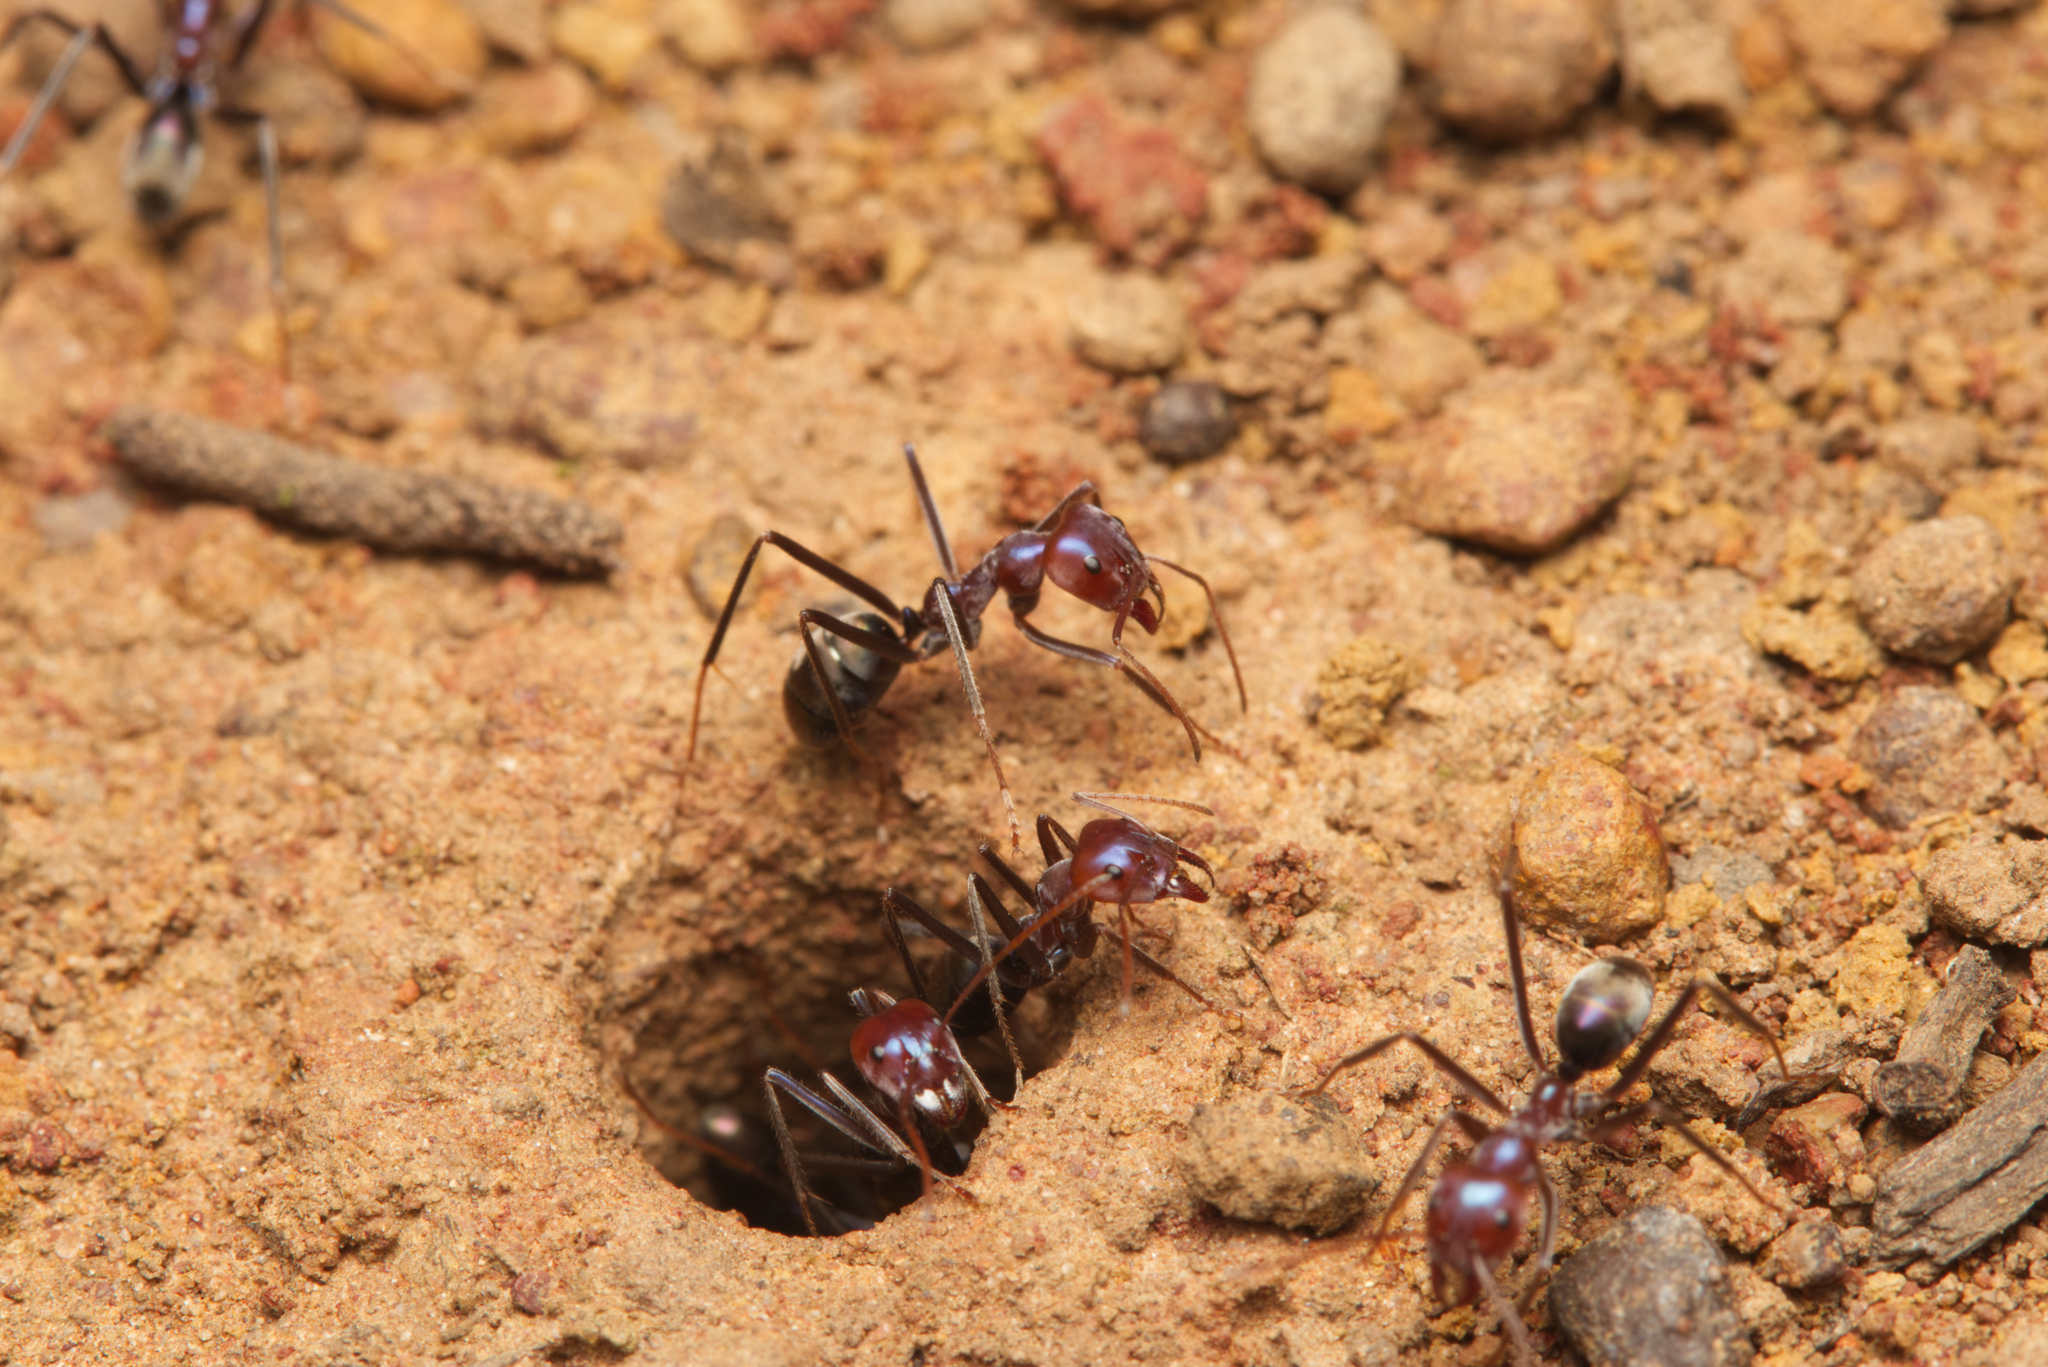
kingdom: Animalia
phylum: Arthropoda
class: Insecta
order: Hymenoptera
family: Formicidae
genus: Iridomyrmex
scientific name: Iridomyrmex purpureus
